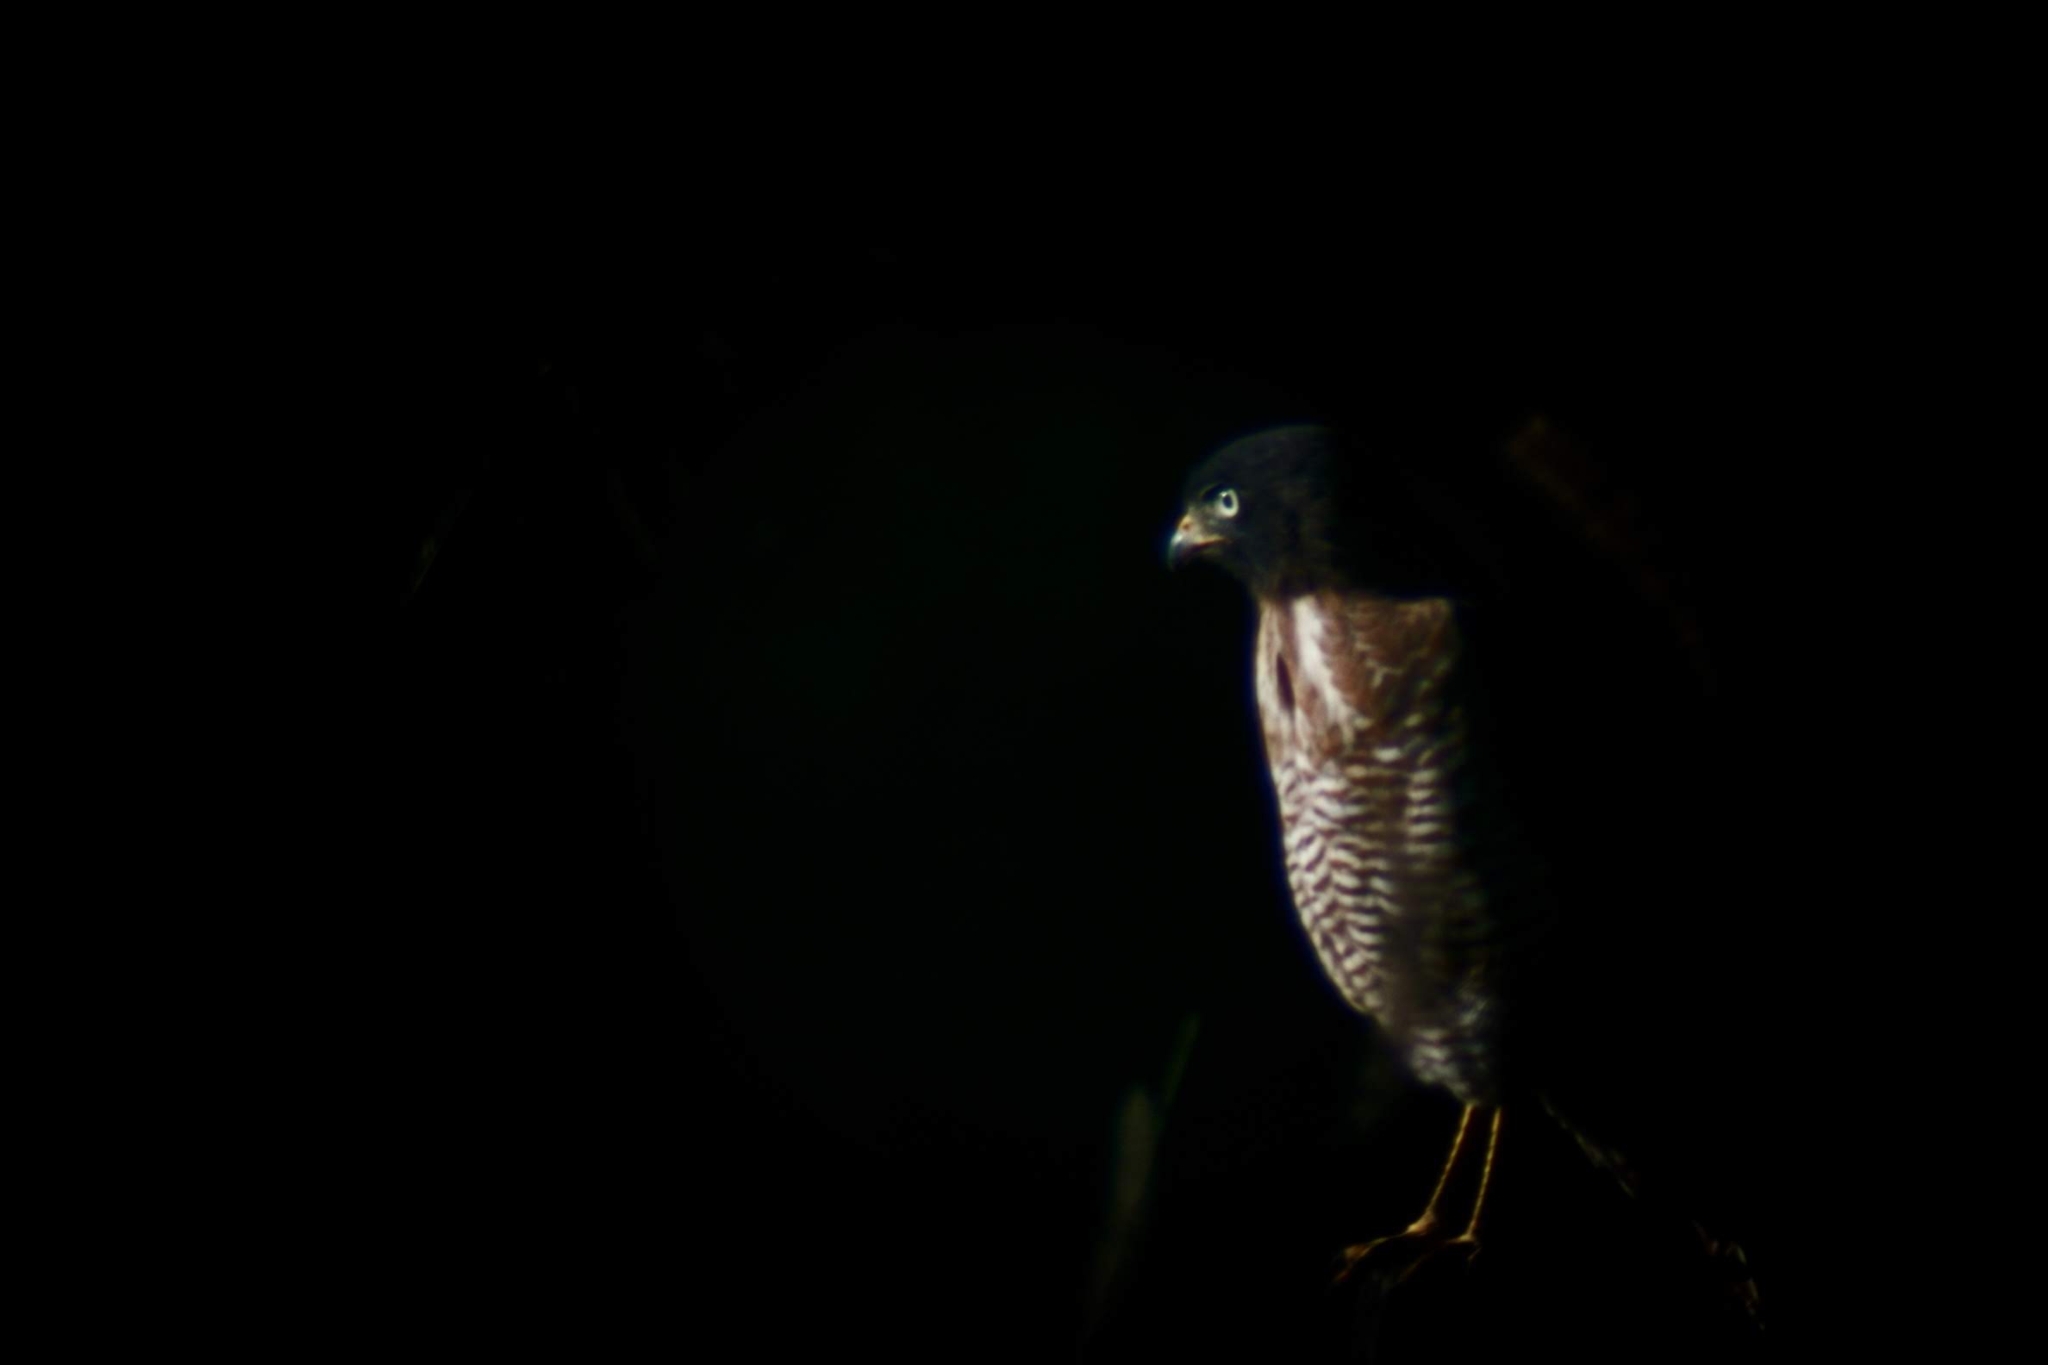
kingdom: Animalia
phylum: Chordata
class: Aves
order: Accipitriformes
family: Accipitridae
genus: Rupornis
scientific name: Rupornis magnirostris
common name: Roadside hawk
